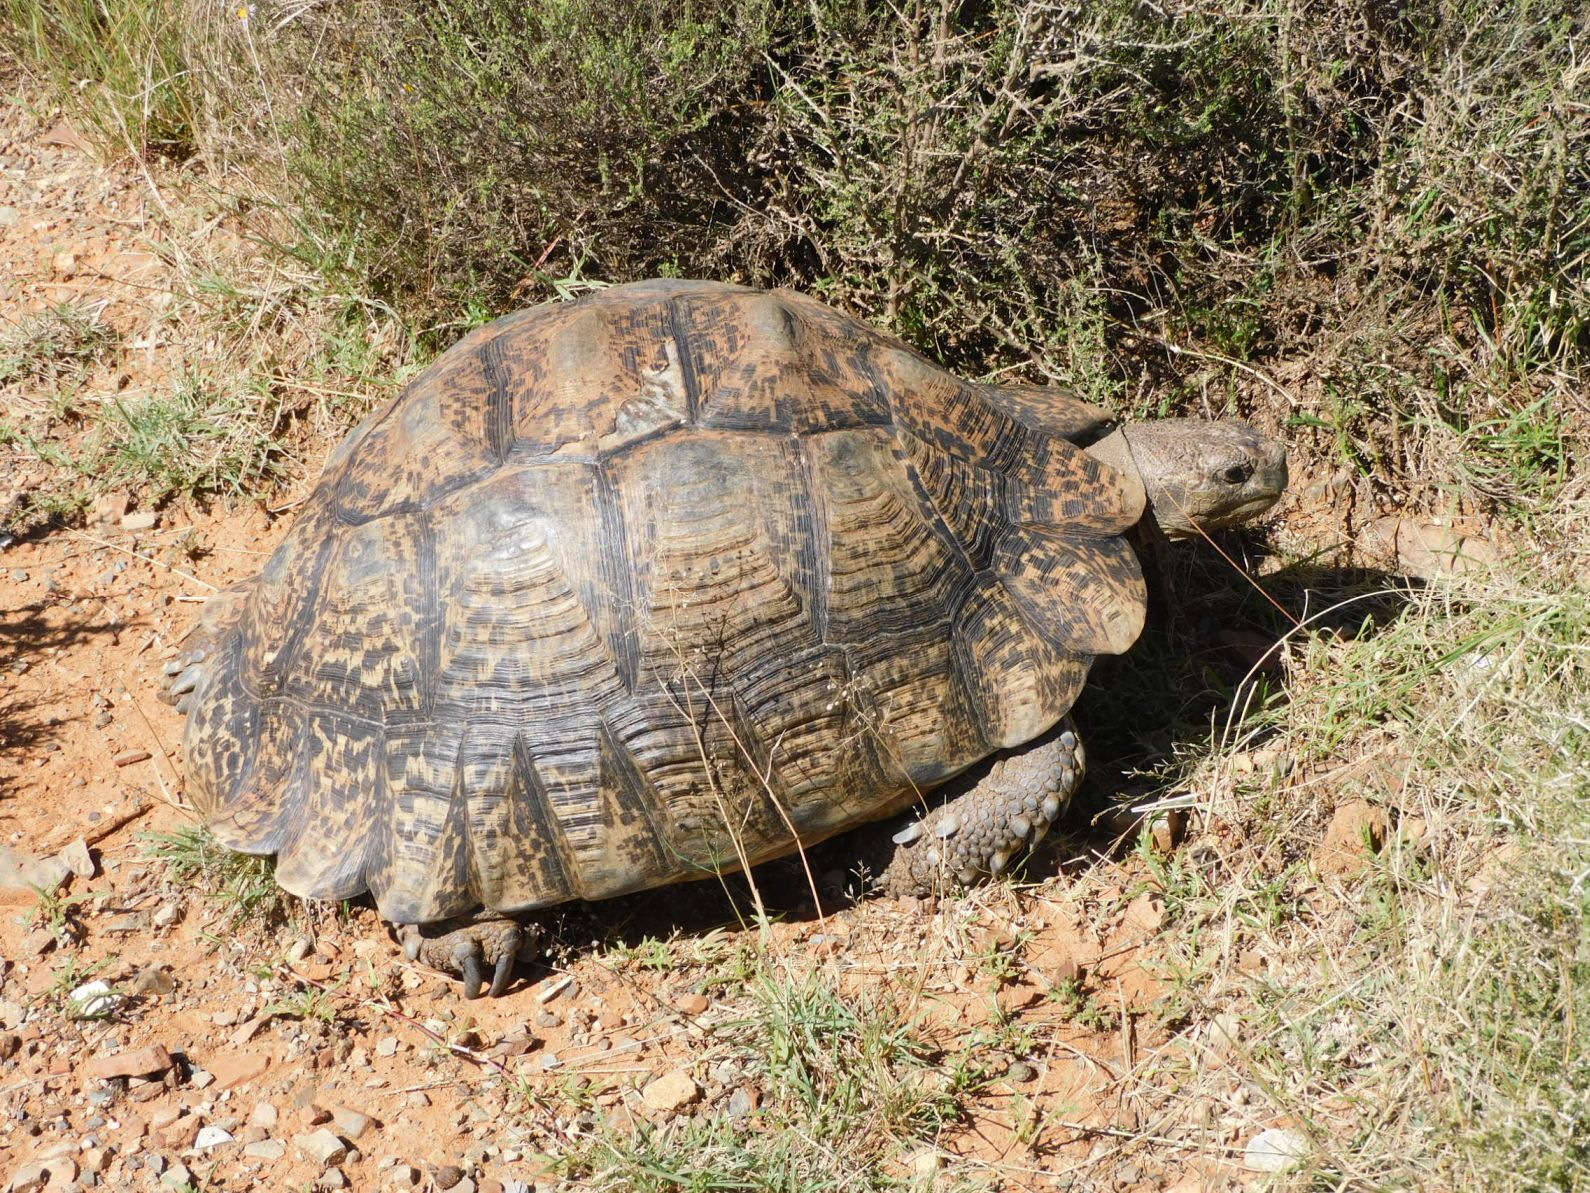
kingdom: Animalia
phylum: Chordata
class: Testudines
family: Testudinidae
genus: Stigmochelys
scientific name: Stigmochelys pardalis
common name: Leopard tortoise
